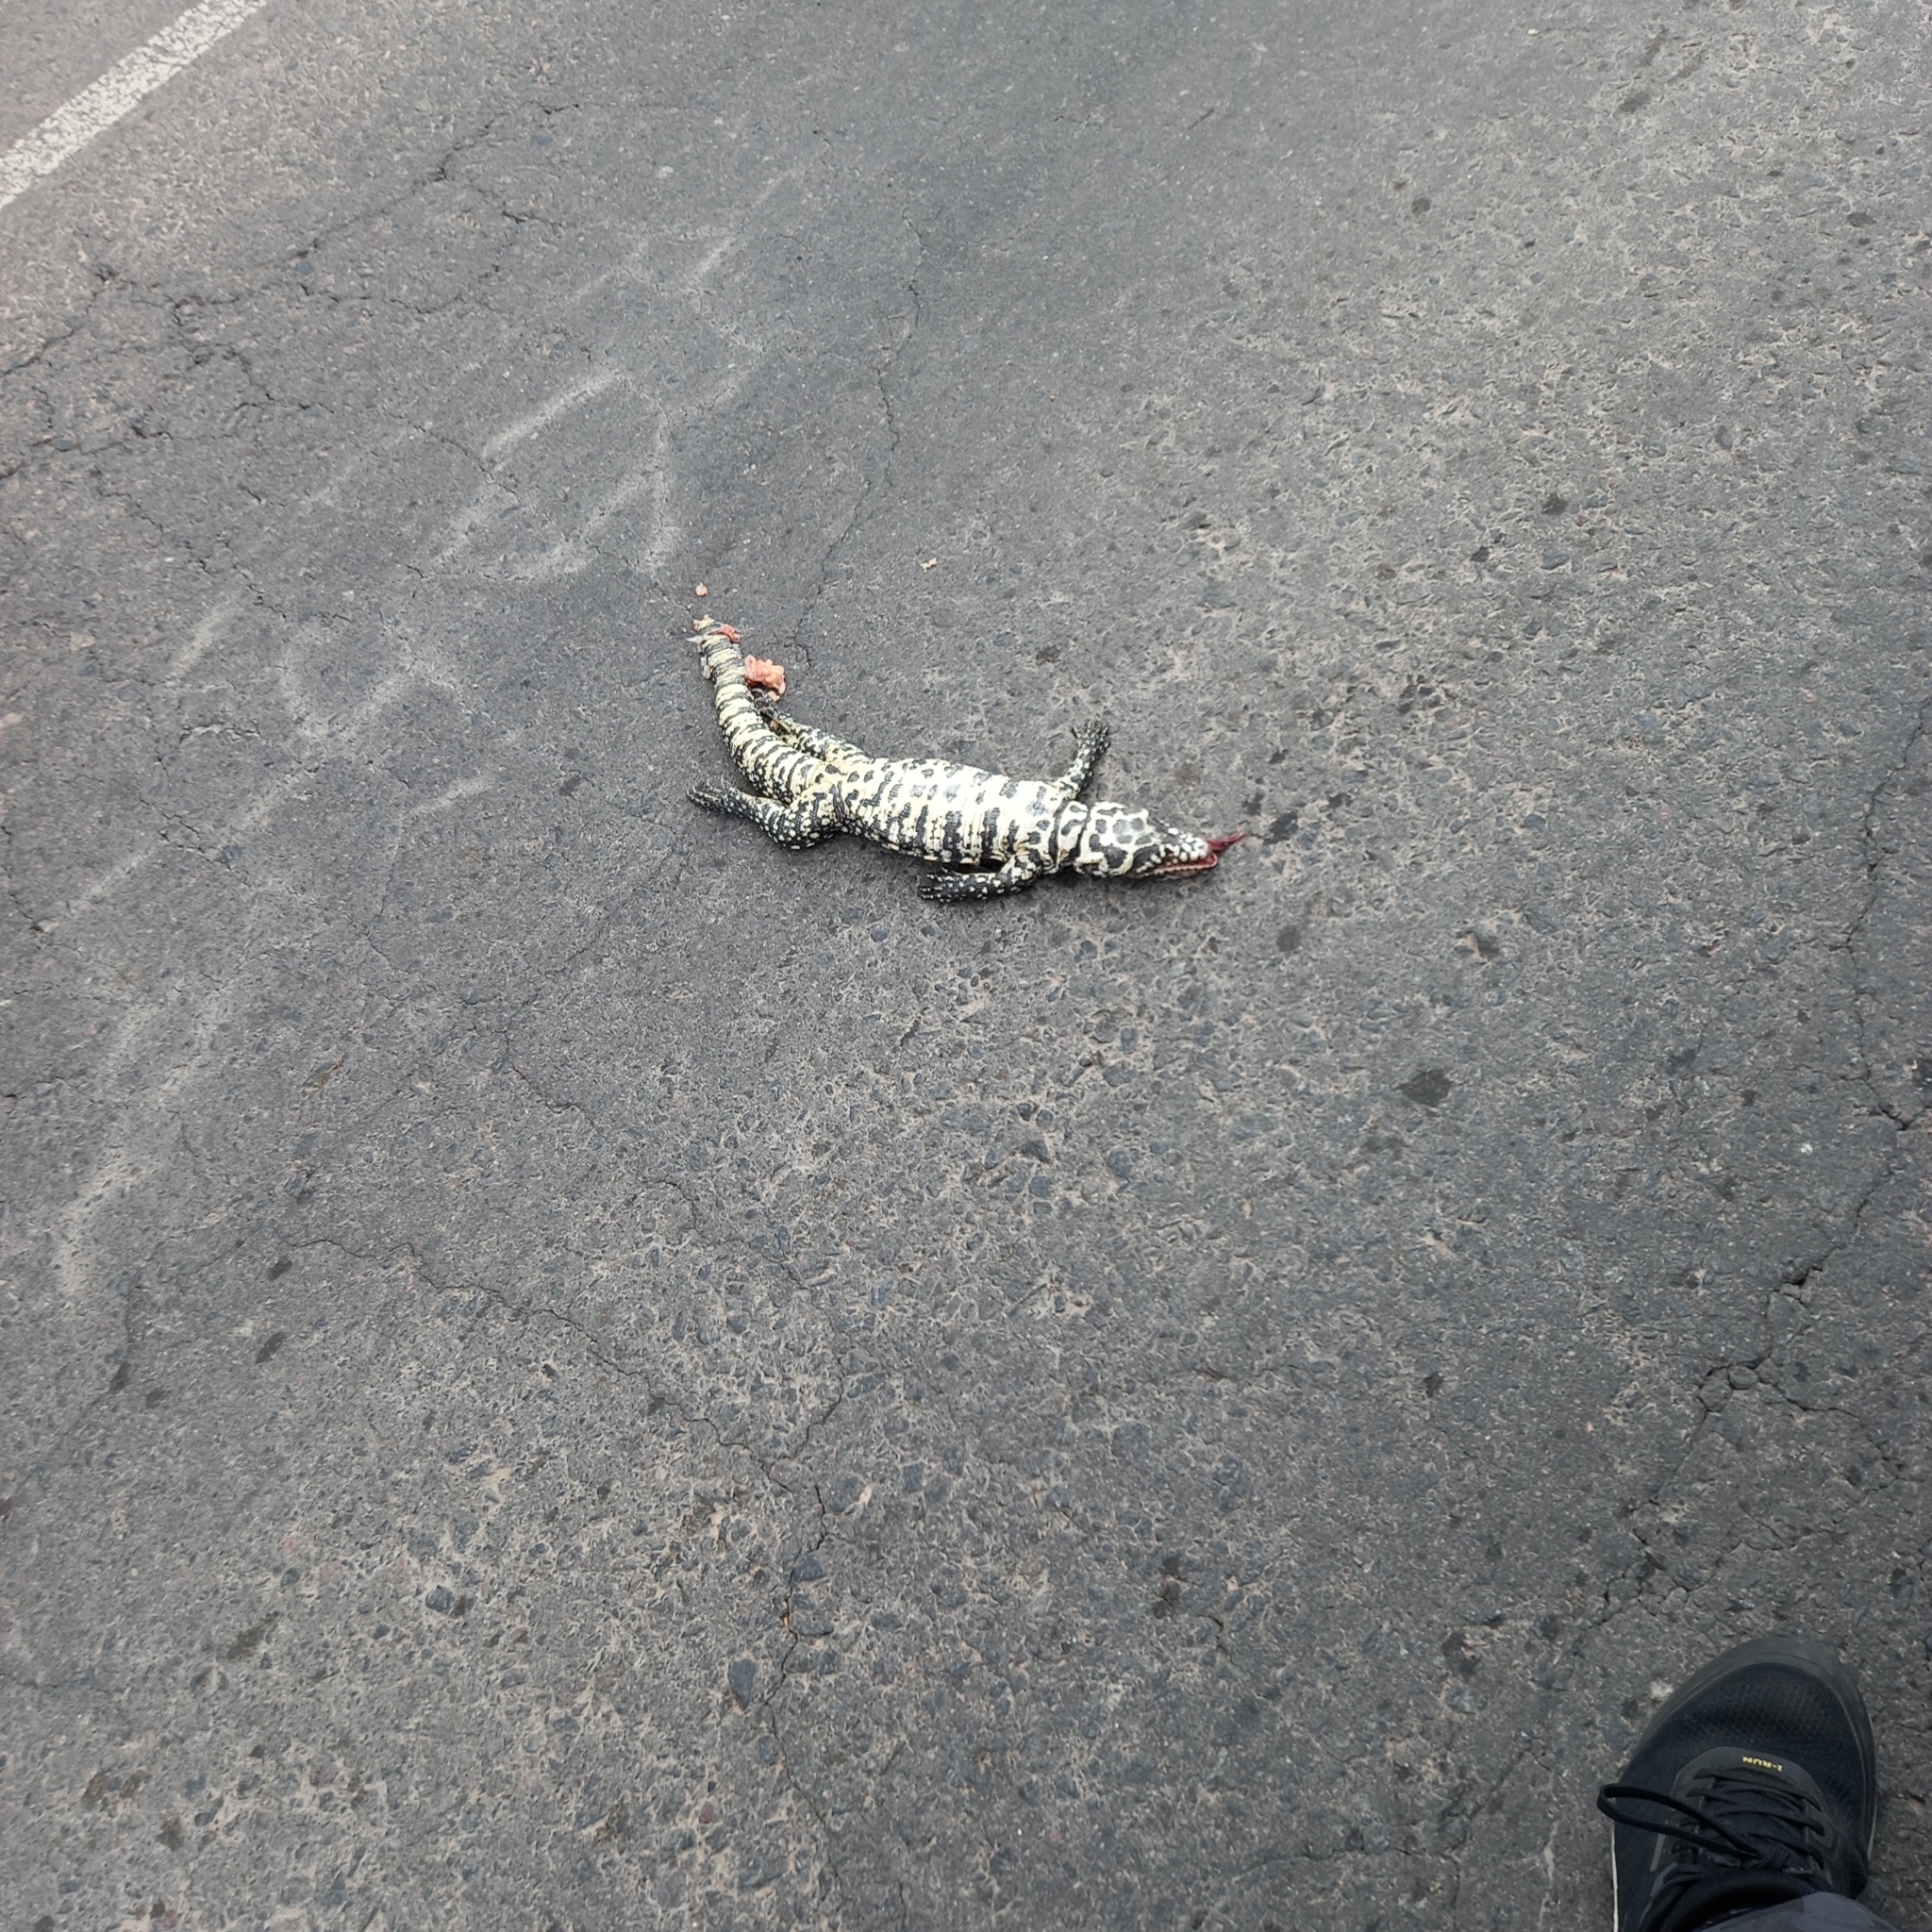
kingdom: Animalia
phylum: Chordata
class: Squamata
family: Teiidae
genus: Salvator
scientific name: Salvator merianae
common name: Argentine black and white tegu
